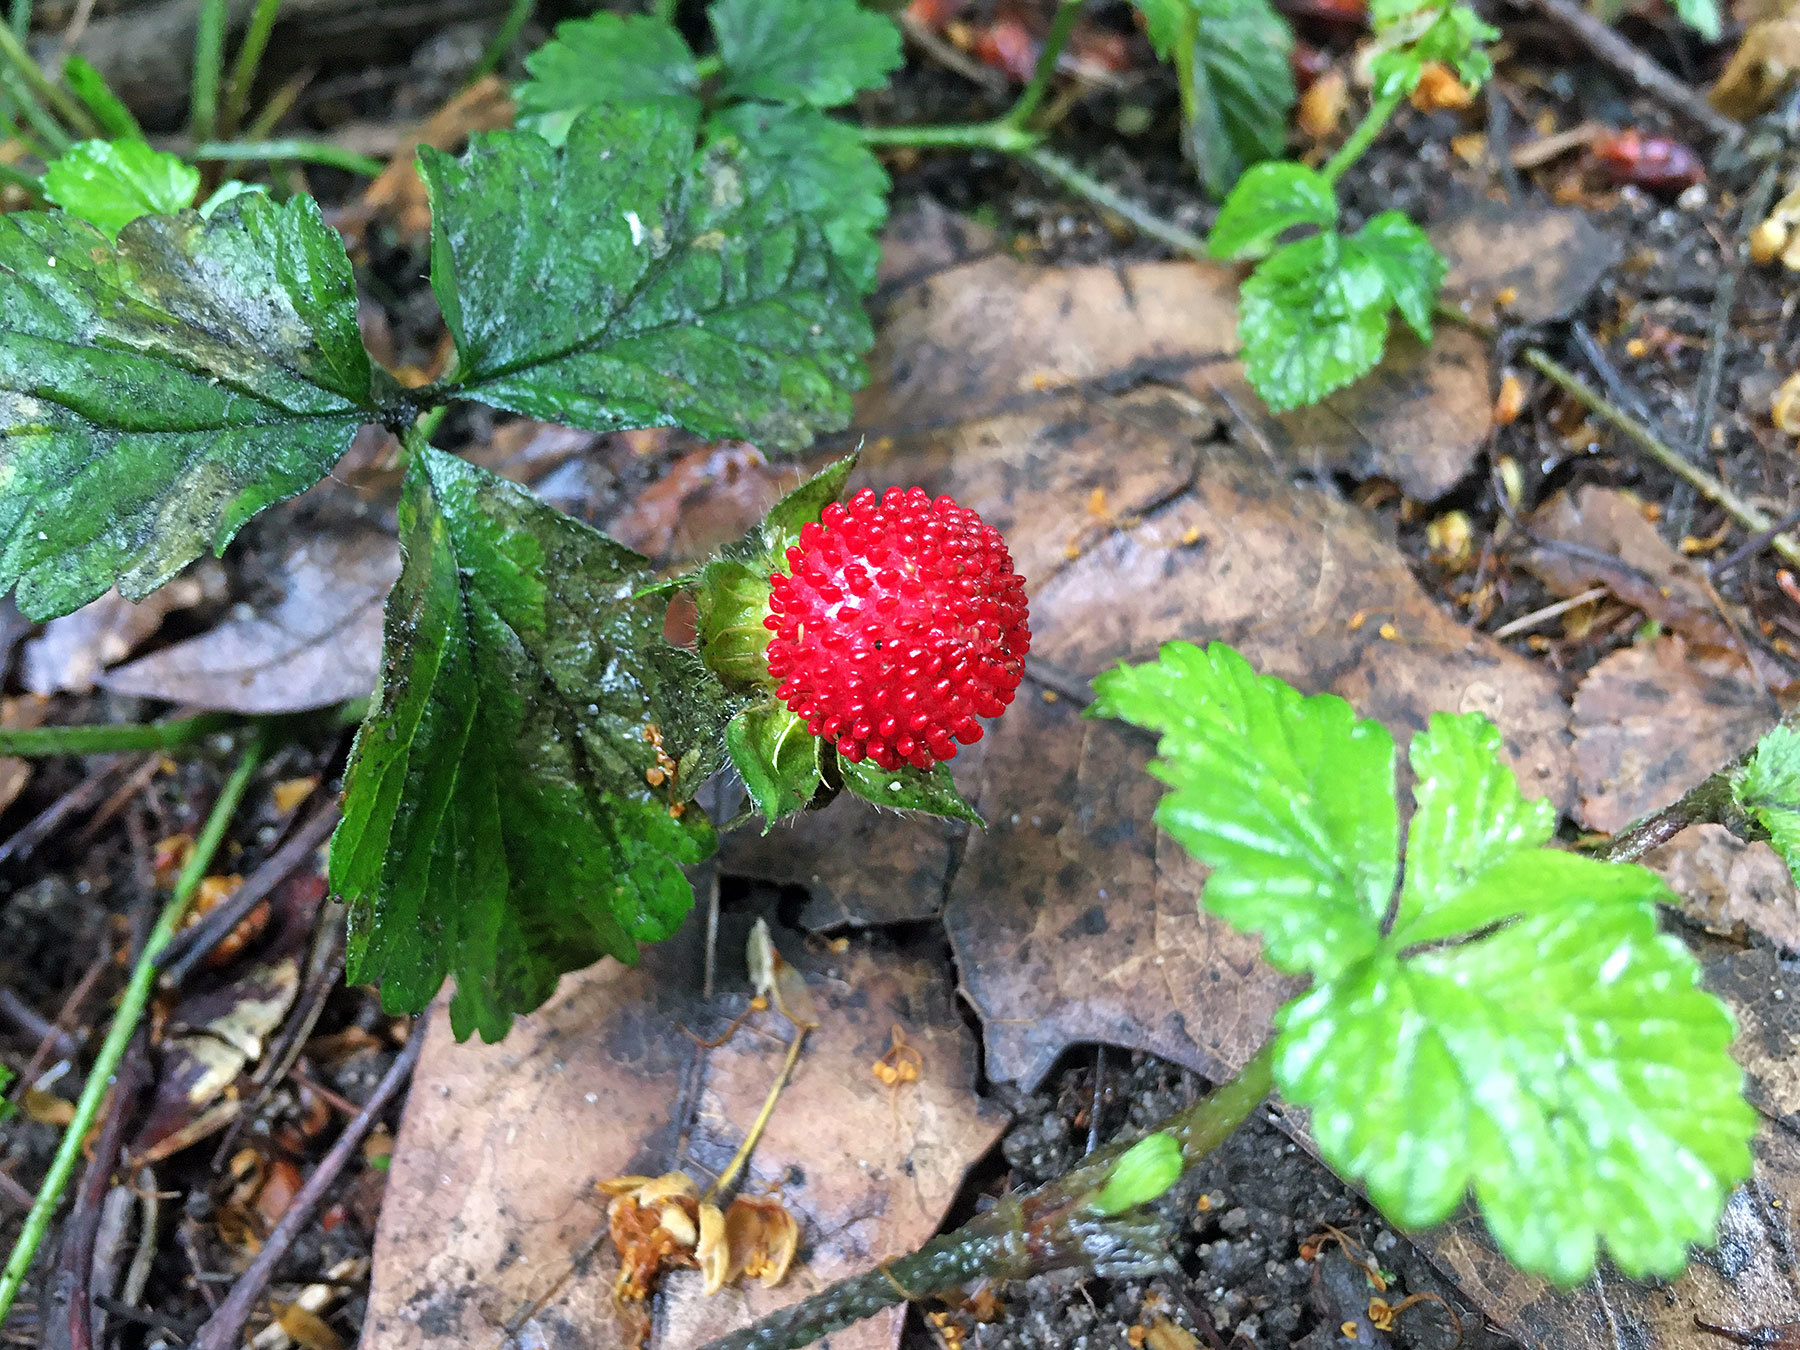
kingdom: Plantae
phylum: Tracheophyta
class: Magnoliopsida
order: Rosales
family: Rosaceae
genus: Potentilla
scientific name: Potentilla indica
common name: Yellow-flowered strawberry
